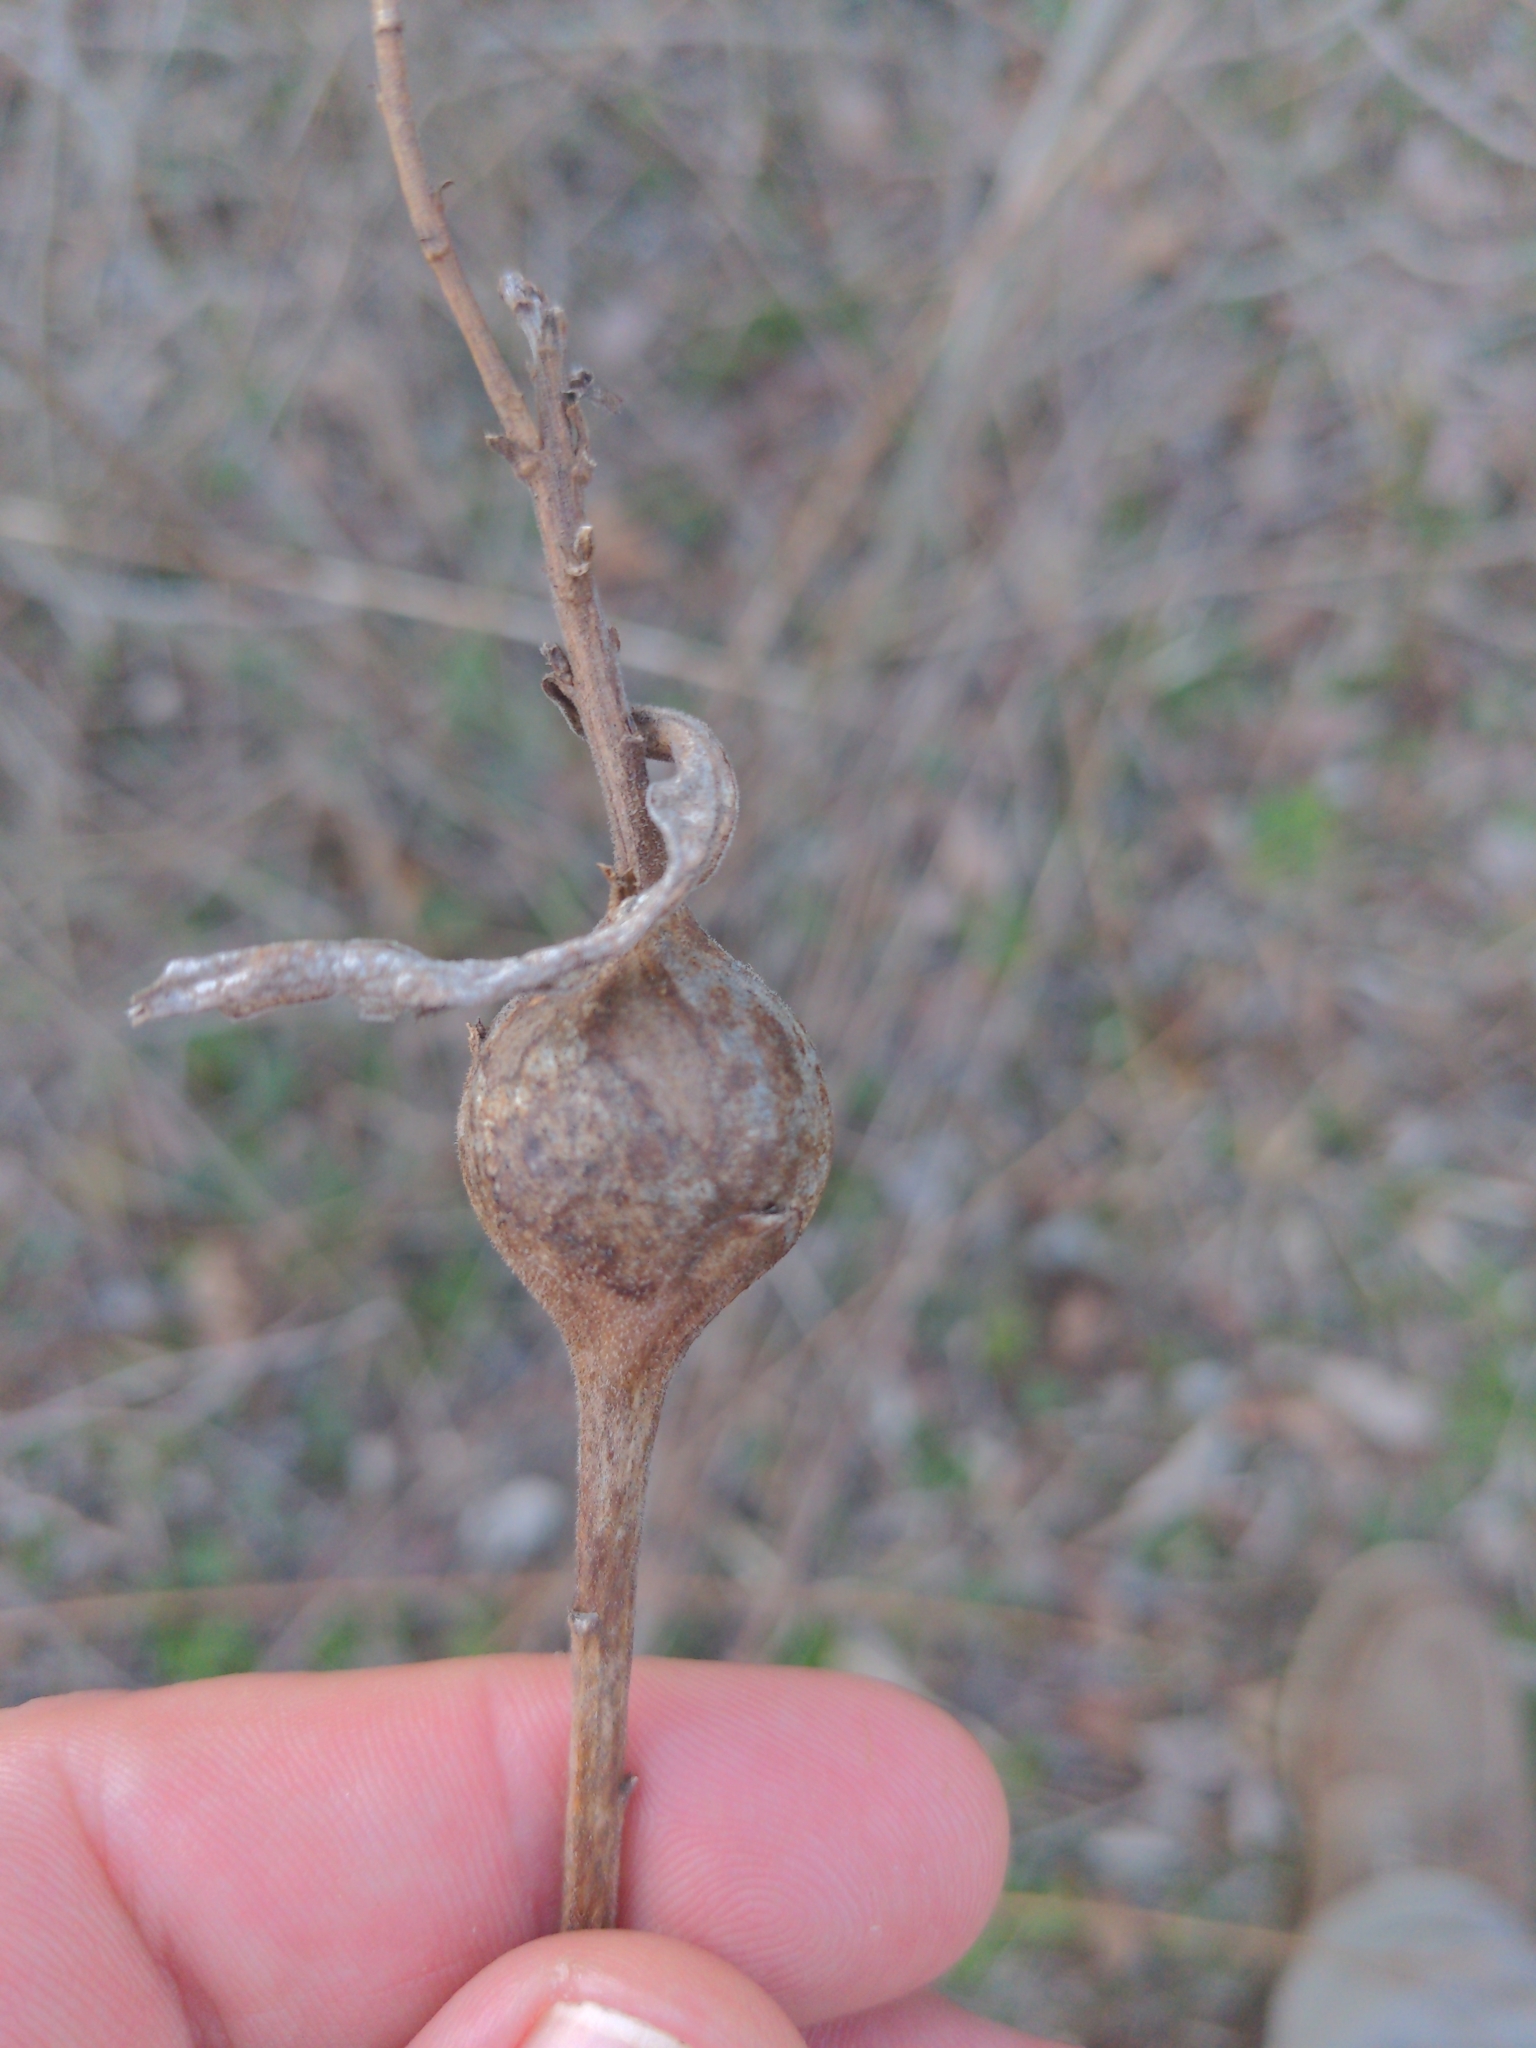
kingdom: Animalia
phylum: Arthropoda
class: Insecta
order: Diptera
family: Tephritidae
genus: Eurosta
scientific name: Eurosta solidaginis
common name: Goldenrod gall fly
